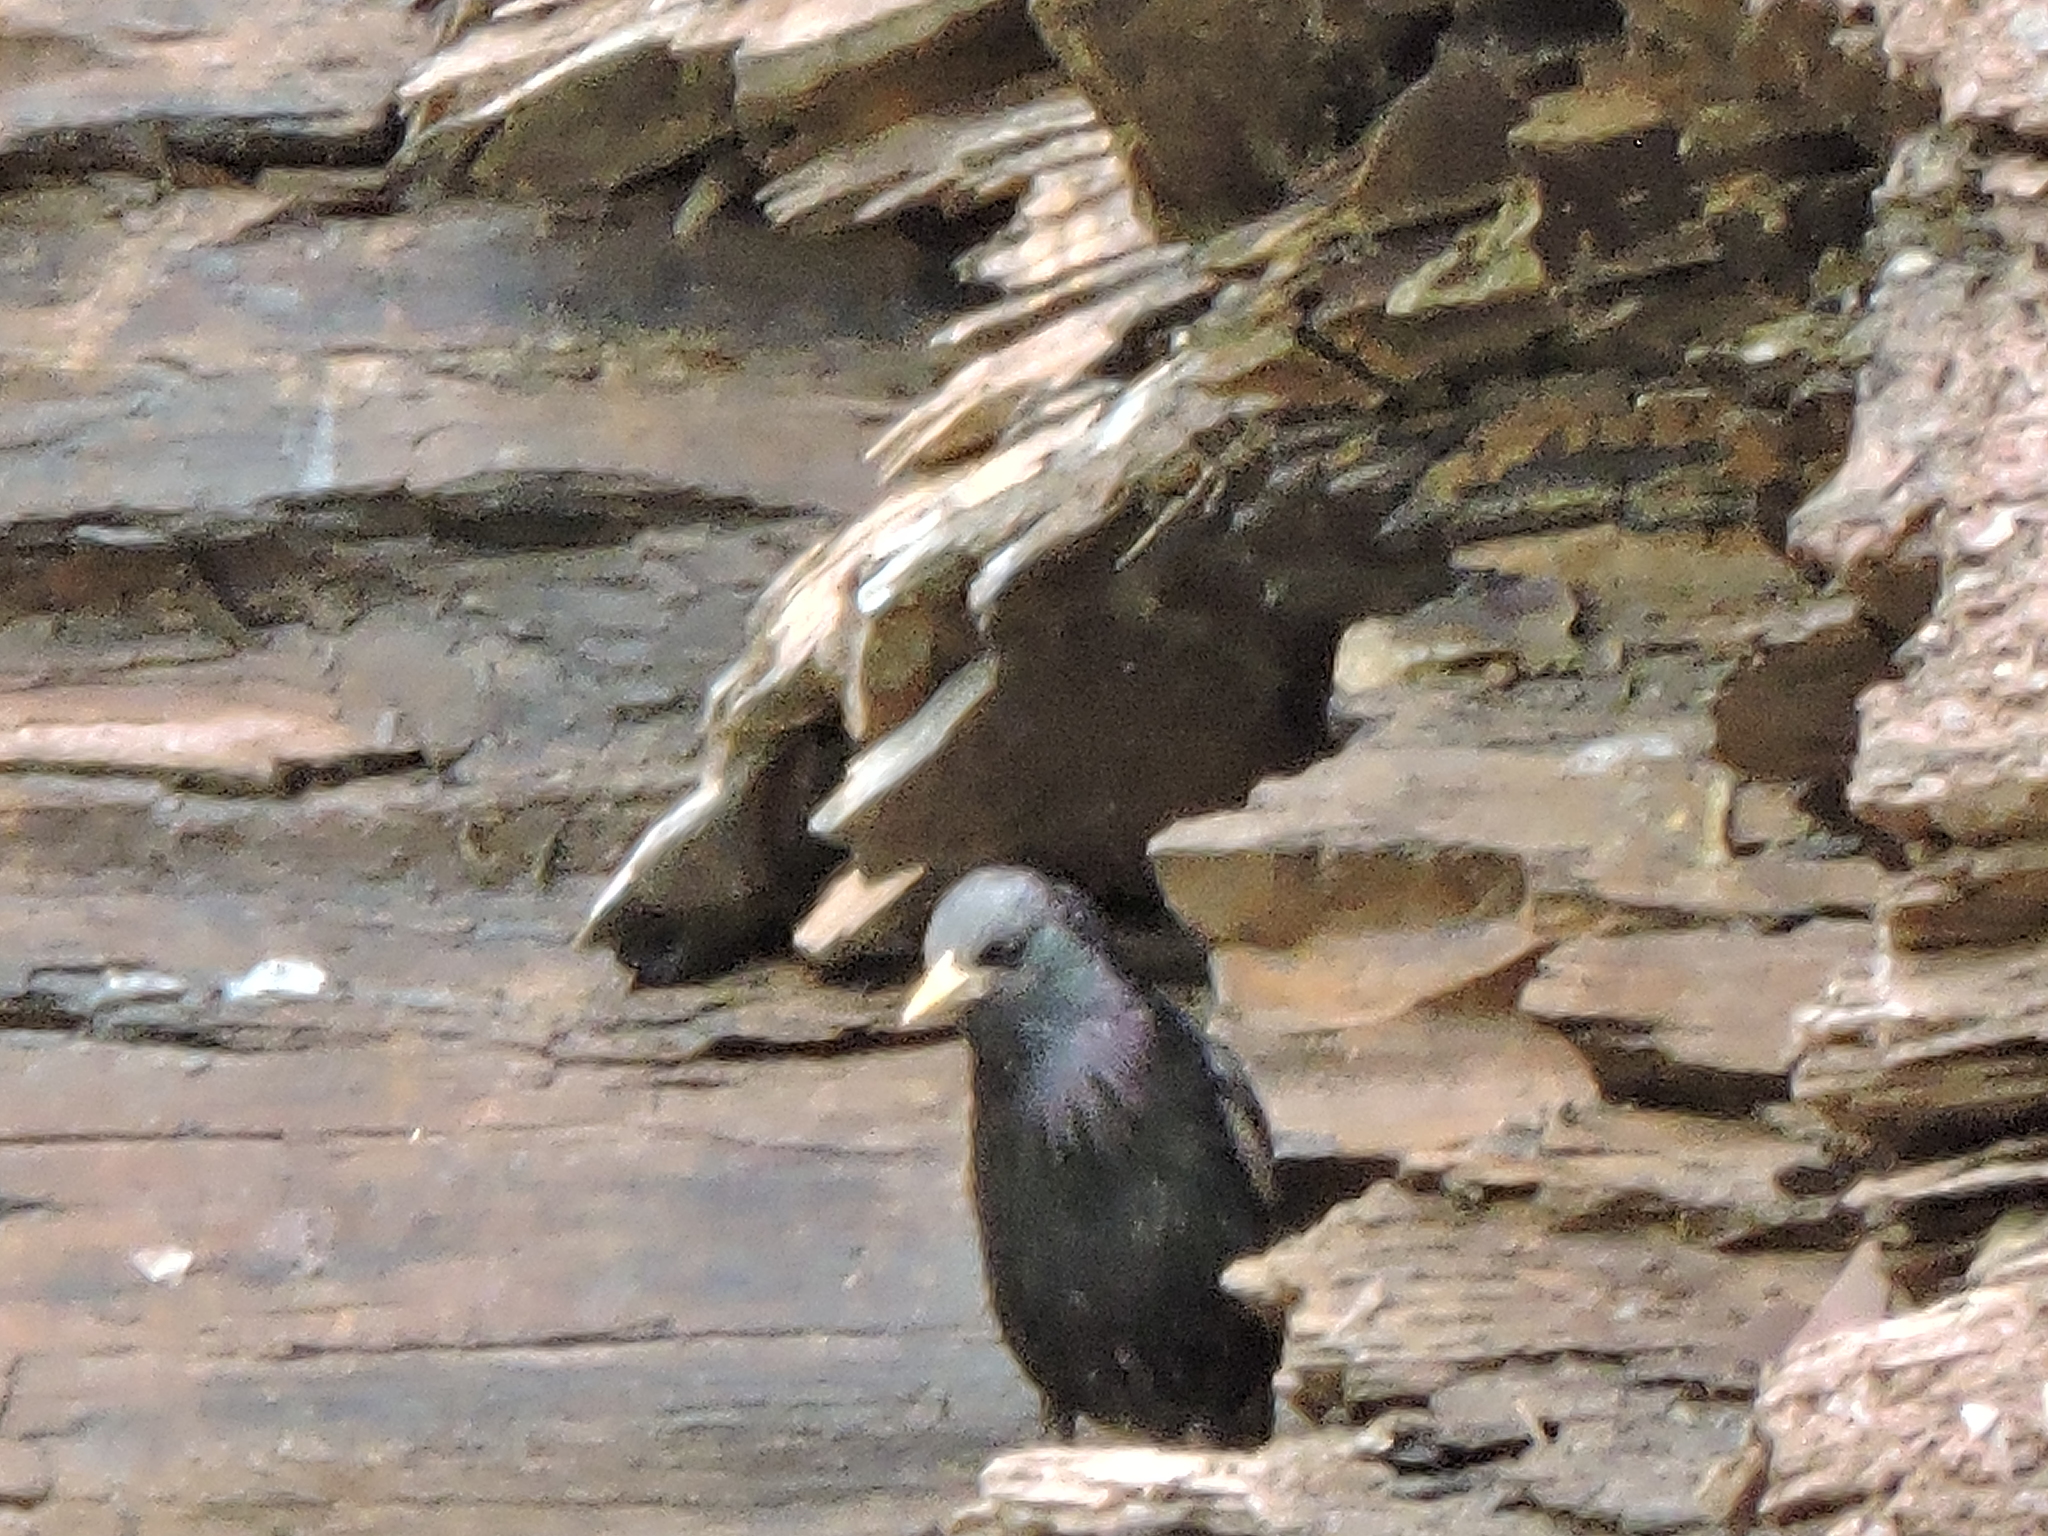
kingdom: Animalia
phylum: Chordata
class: Aves
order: Passeriformes
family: Sturnidae
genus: Sturnus
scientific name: Sturnus vulgaris
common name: Common starling
